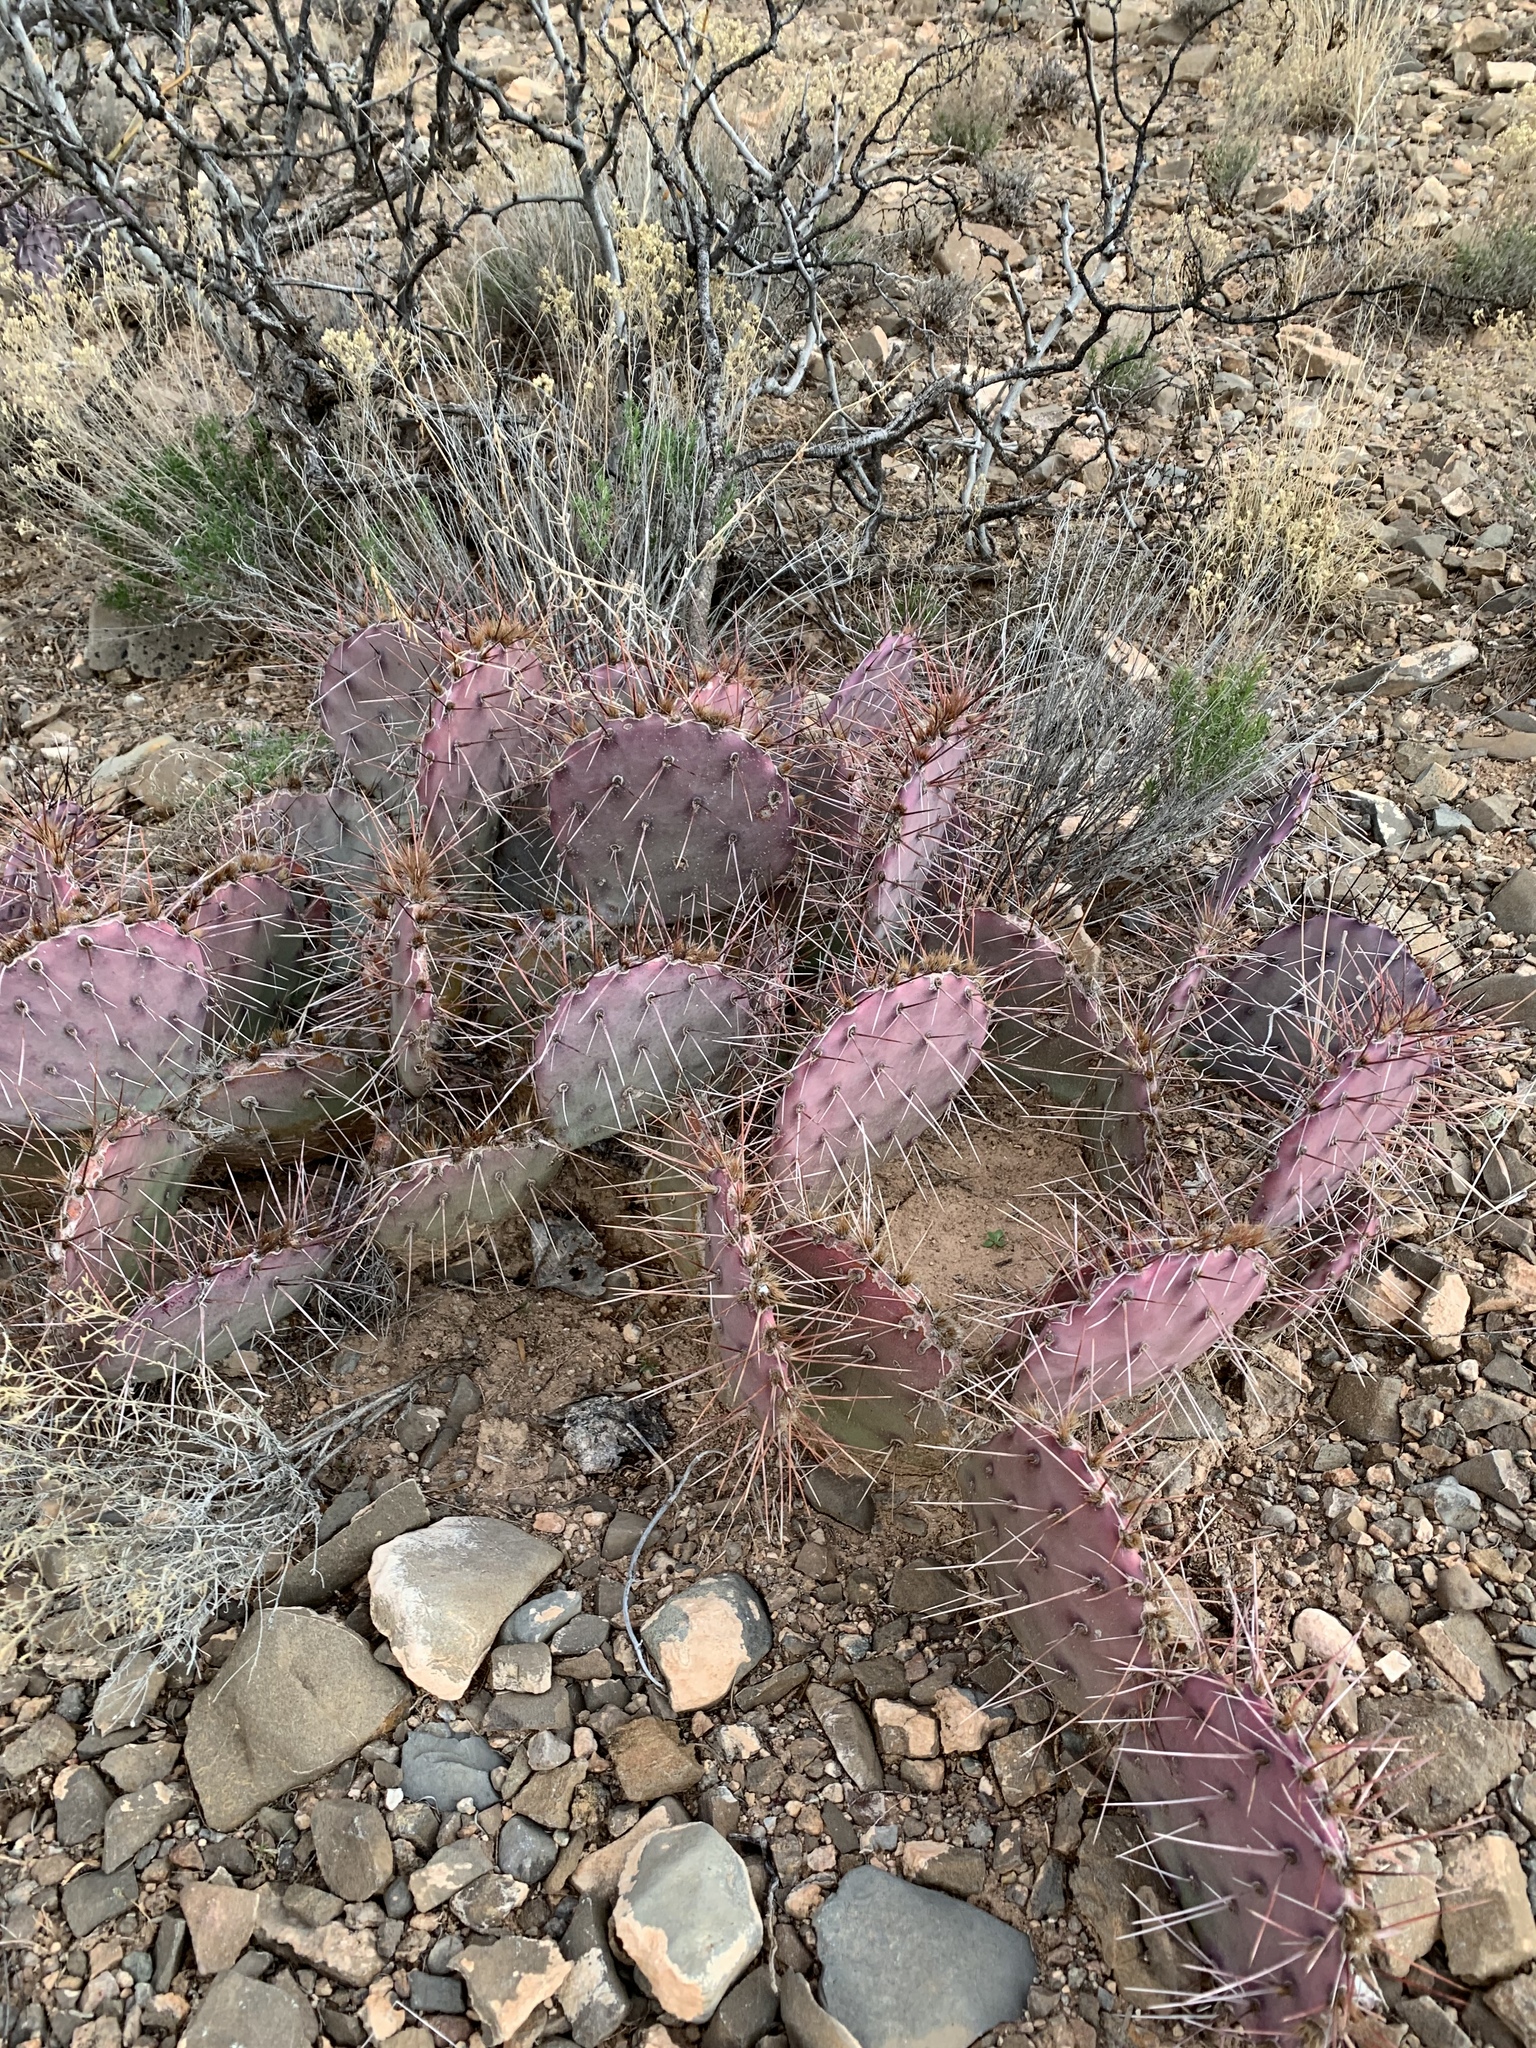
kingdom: Plantae
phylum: Tracheophyta
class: Magnoliopsida
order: Caryophyllales
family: Cactaceae
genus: Opuntia
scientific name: Opuntia macrocentra
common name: Purple prickly-pear
